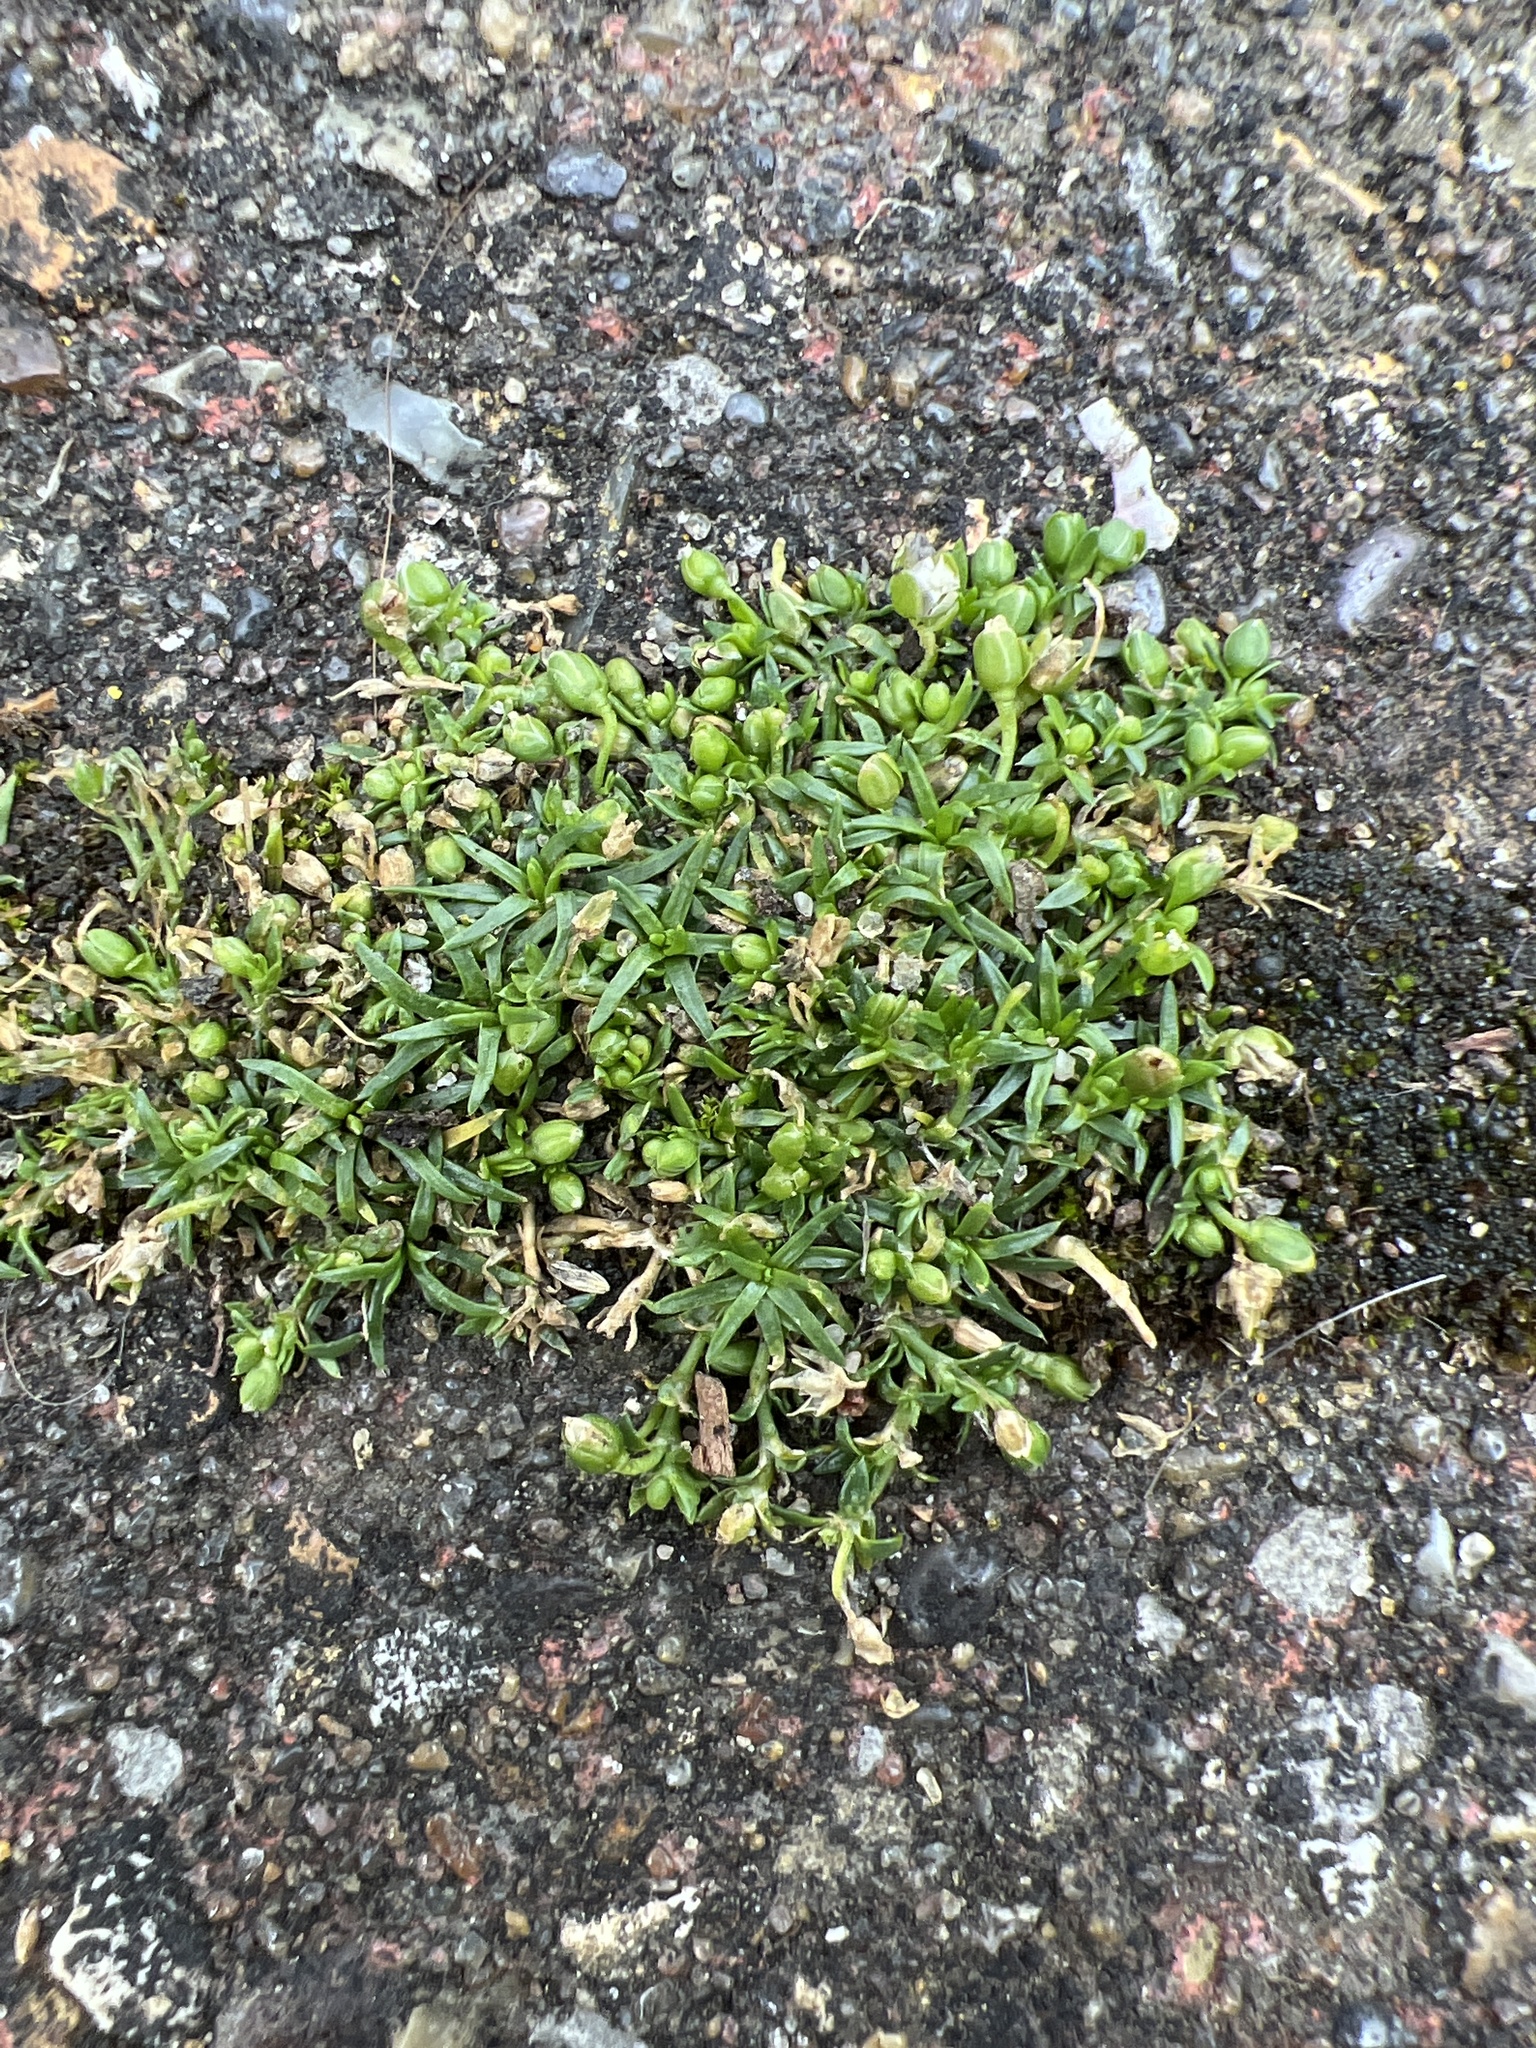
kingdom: Plantae
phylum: Tracheophyta
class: Magnoliopsida
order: Caryophyllales
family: Caryophyllaceae
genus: Sagina
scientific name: Sagina procumbens
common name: Procumbent pearlwort
